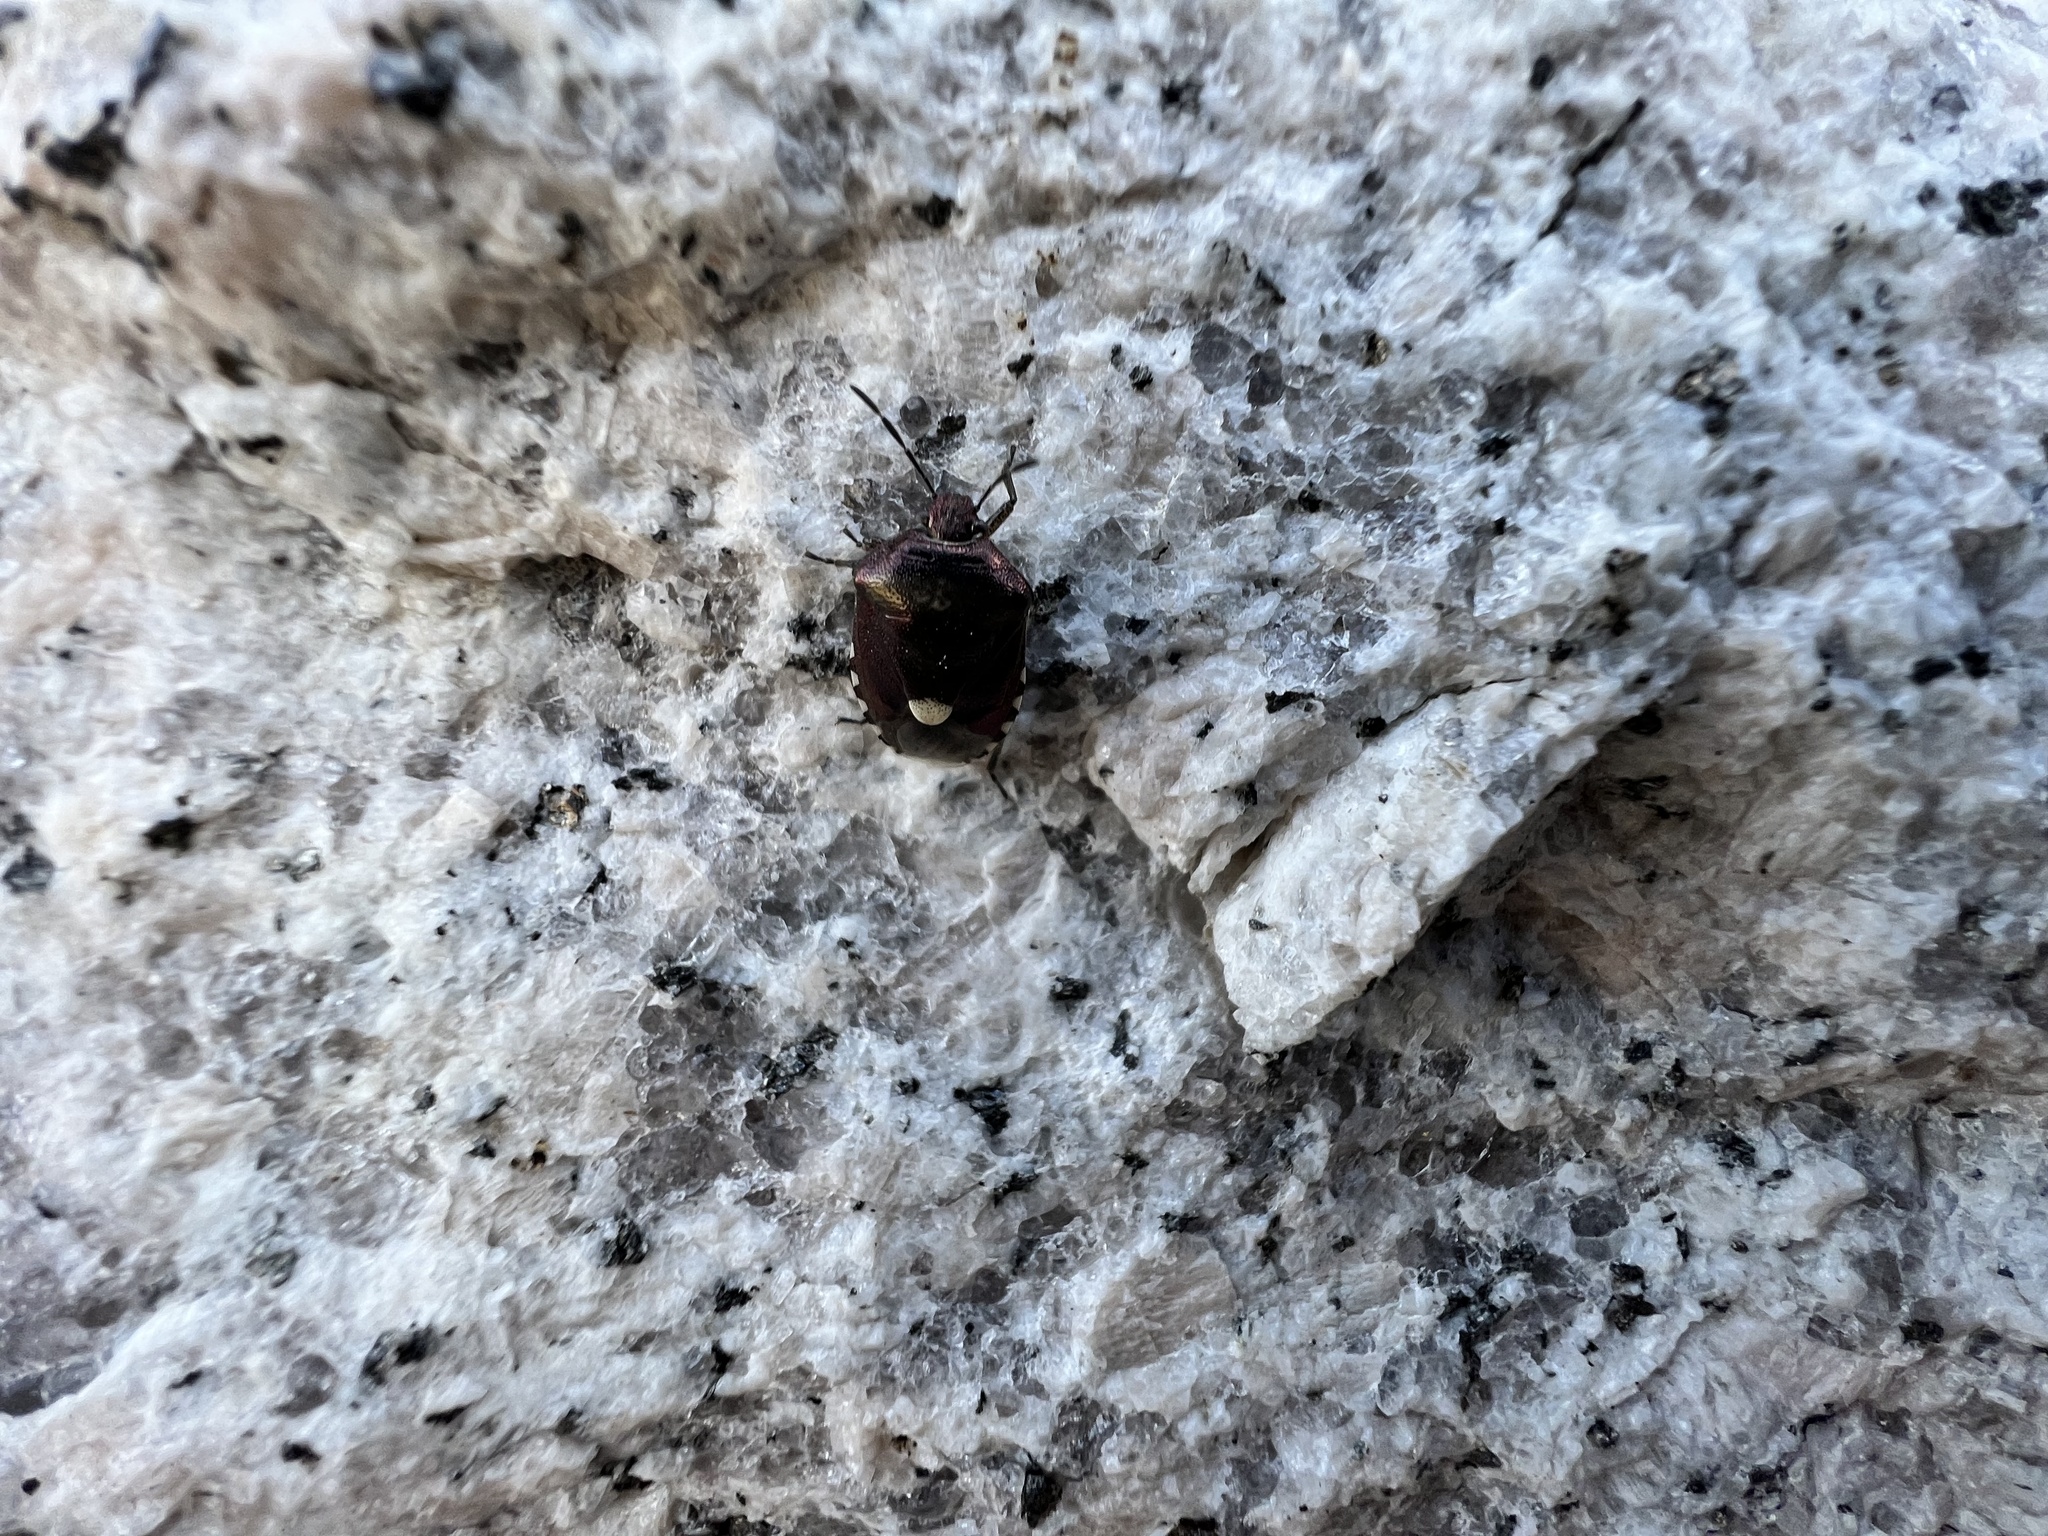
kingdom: Animalia
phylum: Arthropoda
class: Insecta
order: Hemiptera
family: Pentatomidae
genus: Menida
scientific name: Menida violacea
